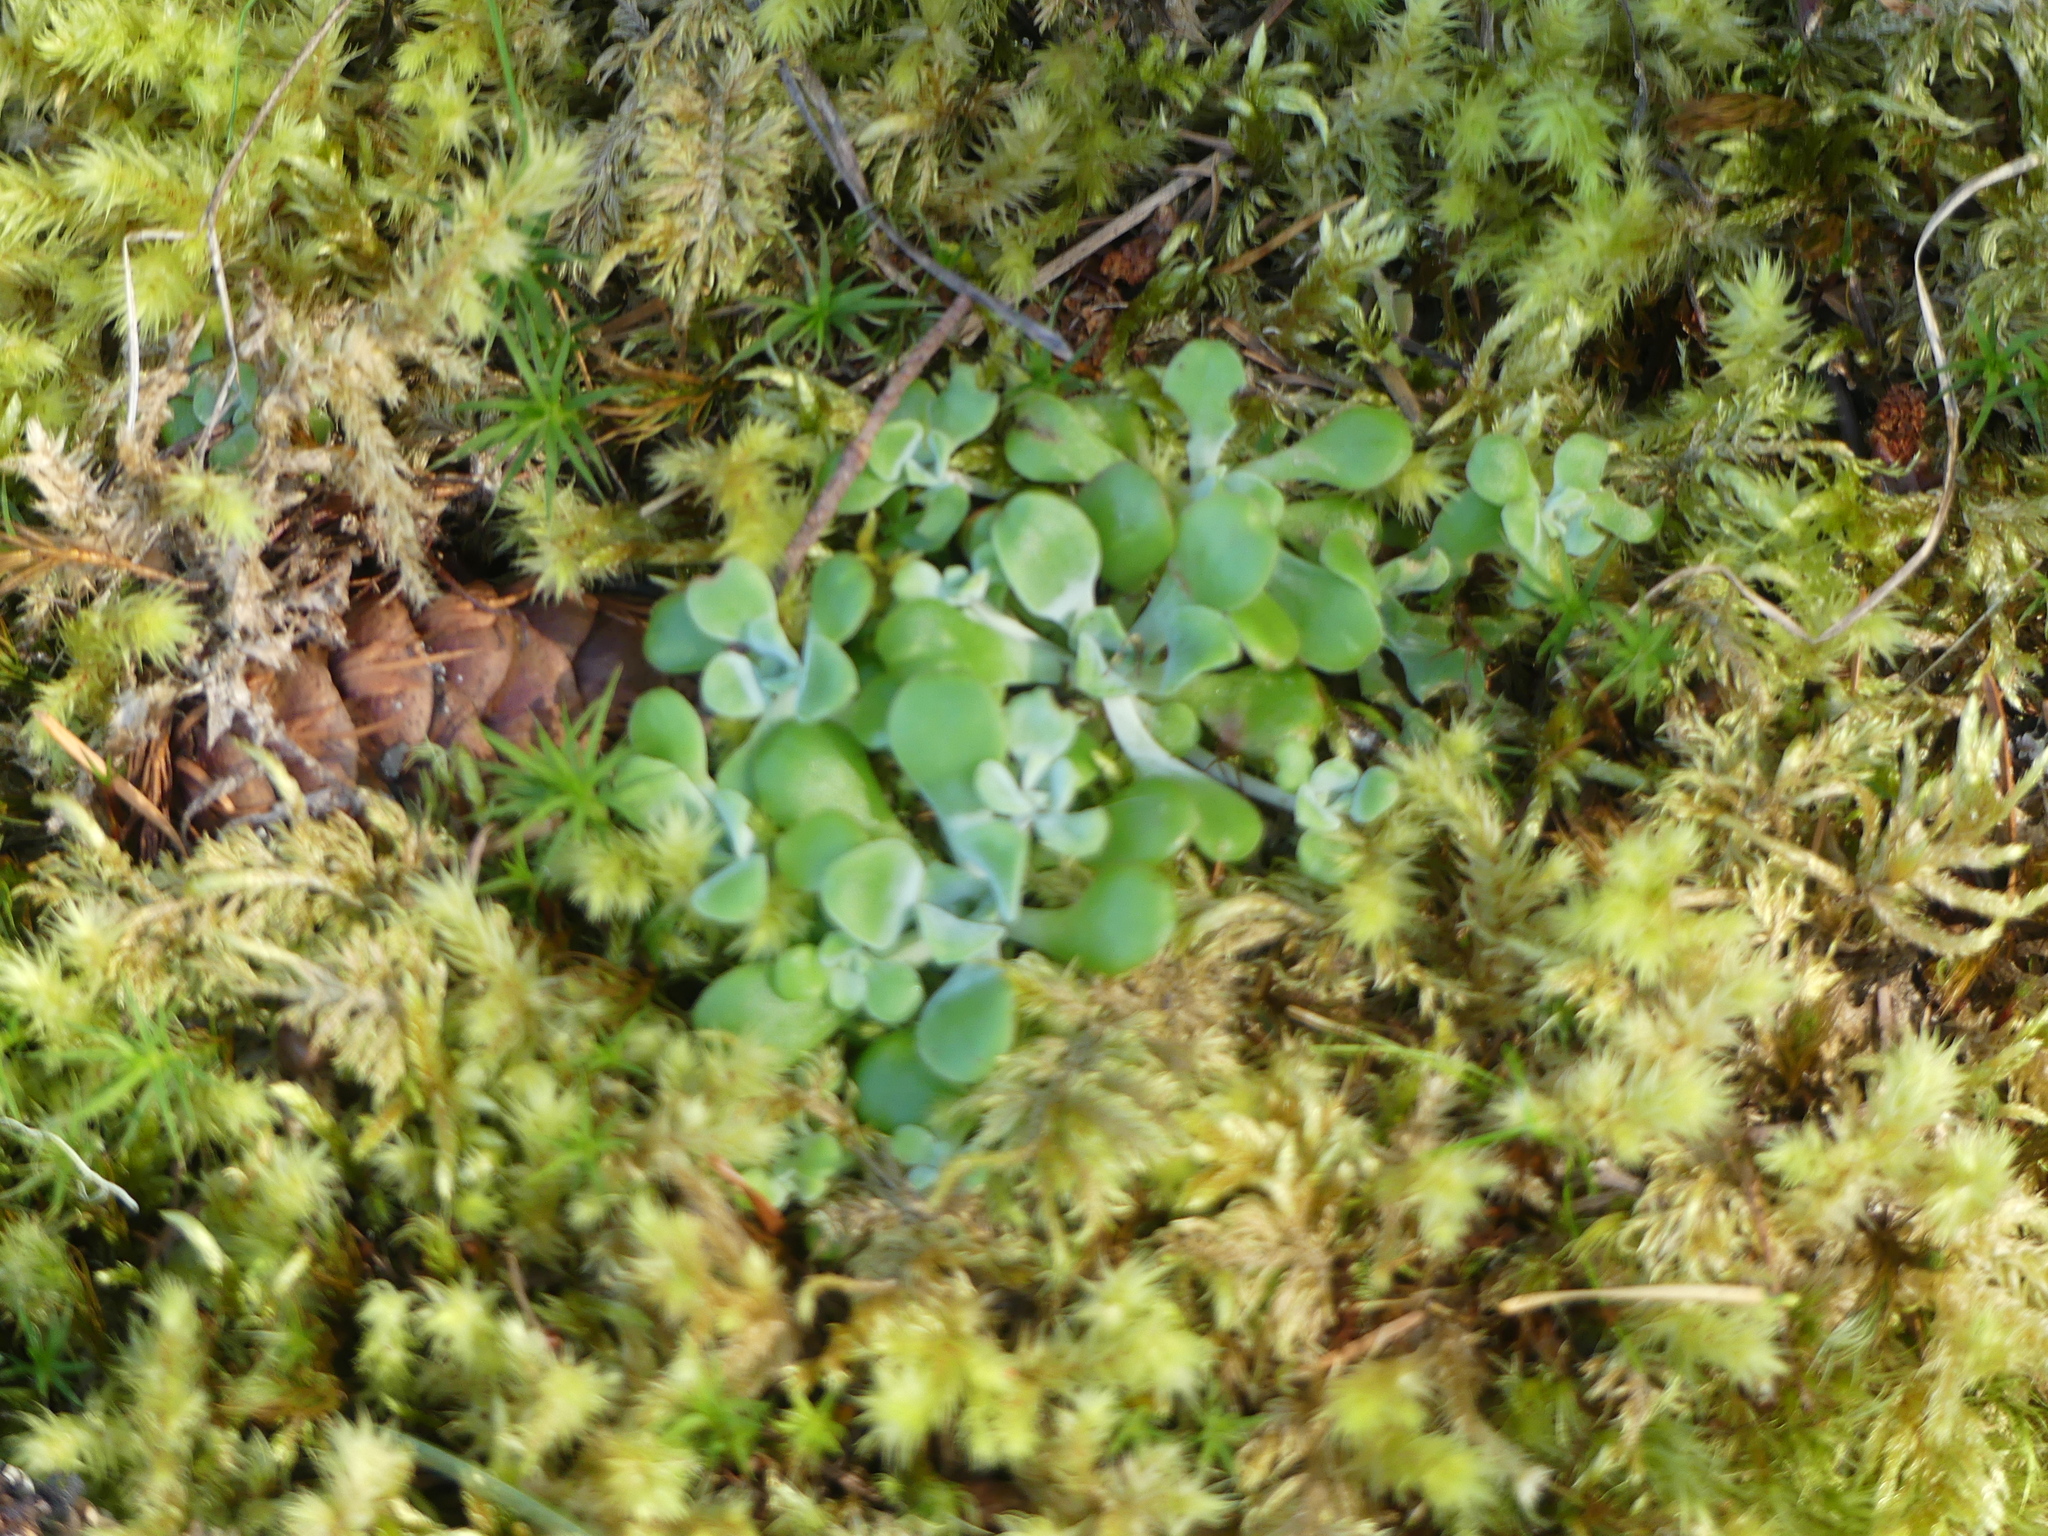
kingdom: Plantae
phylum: Tracheophyta
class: Magnoliopsida
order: Saxifragales
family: Crassulaceae
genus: Sedum
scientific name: Sedum spathulifolium
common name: Colorado stonecrop
